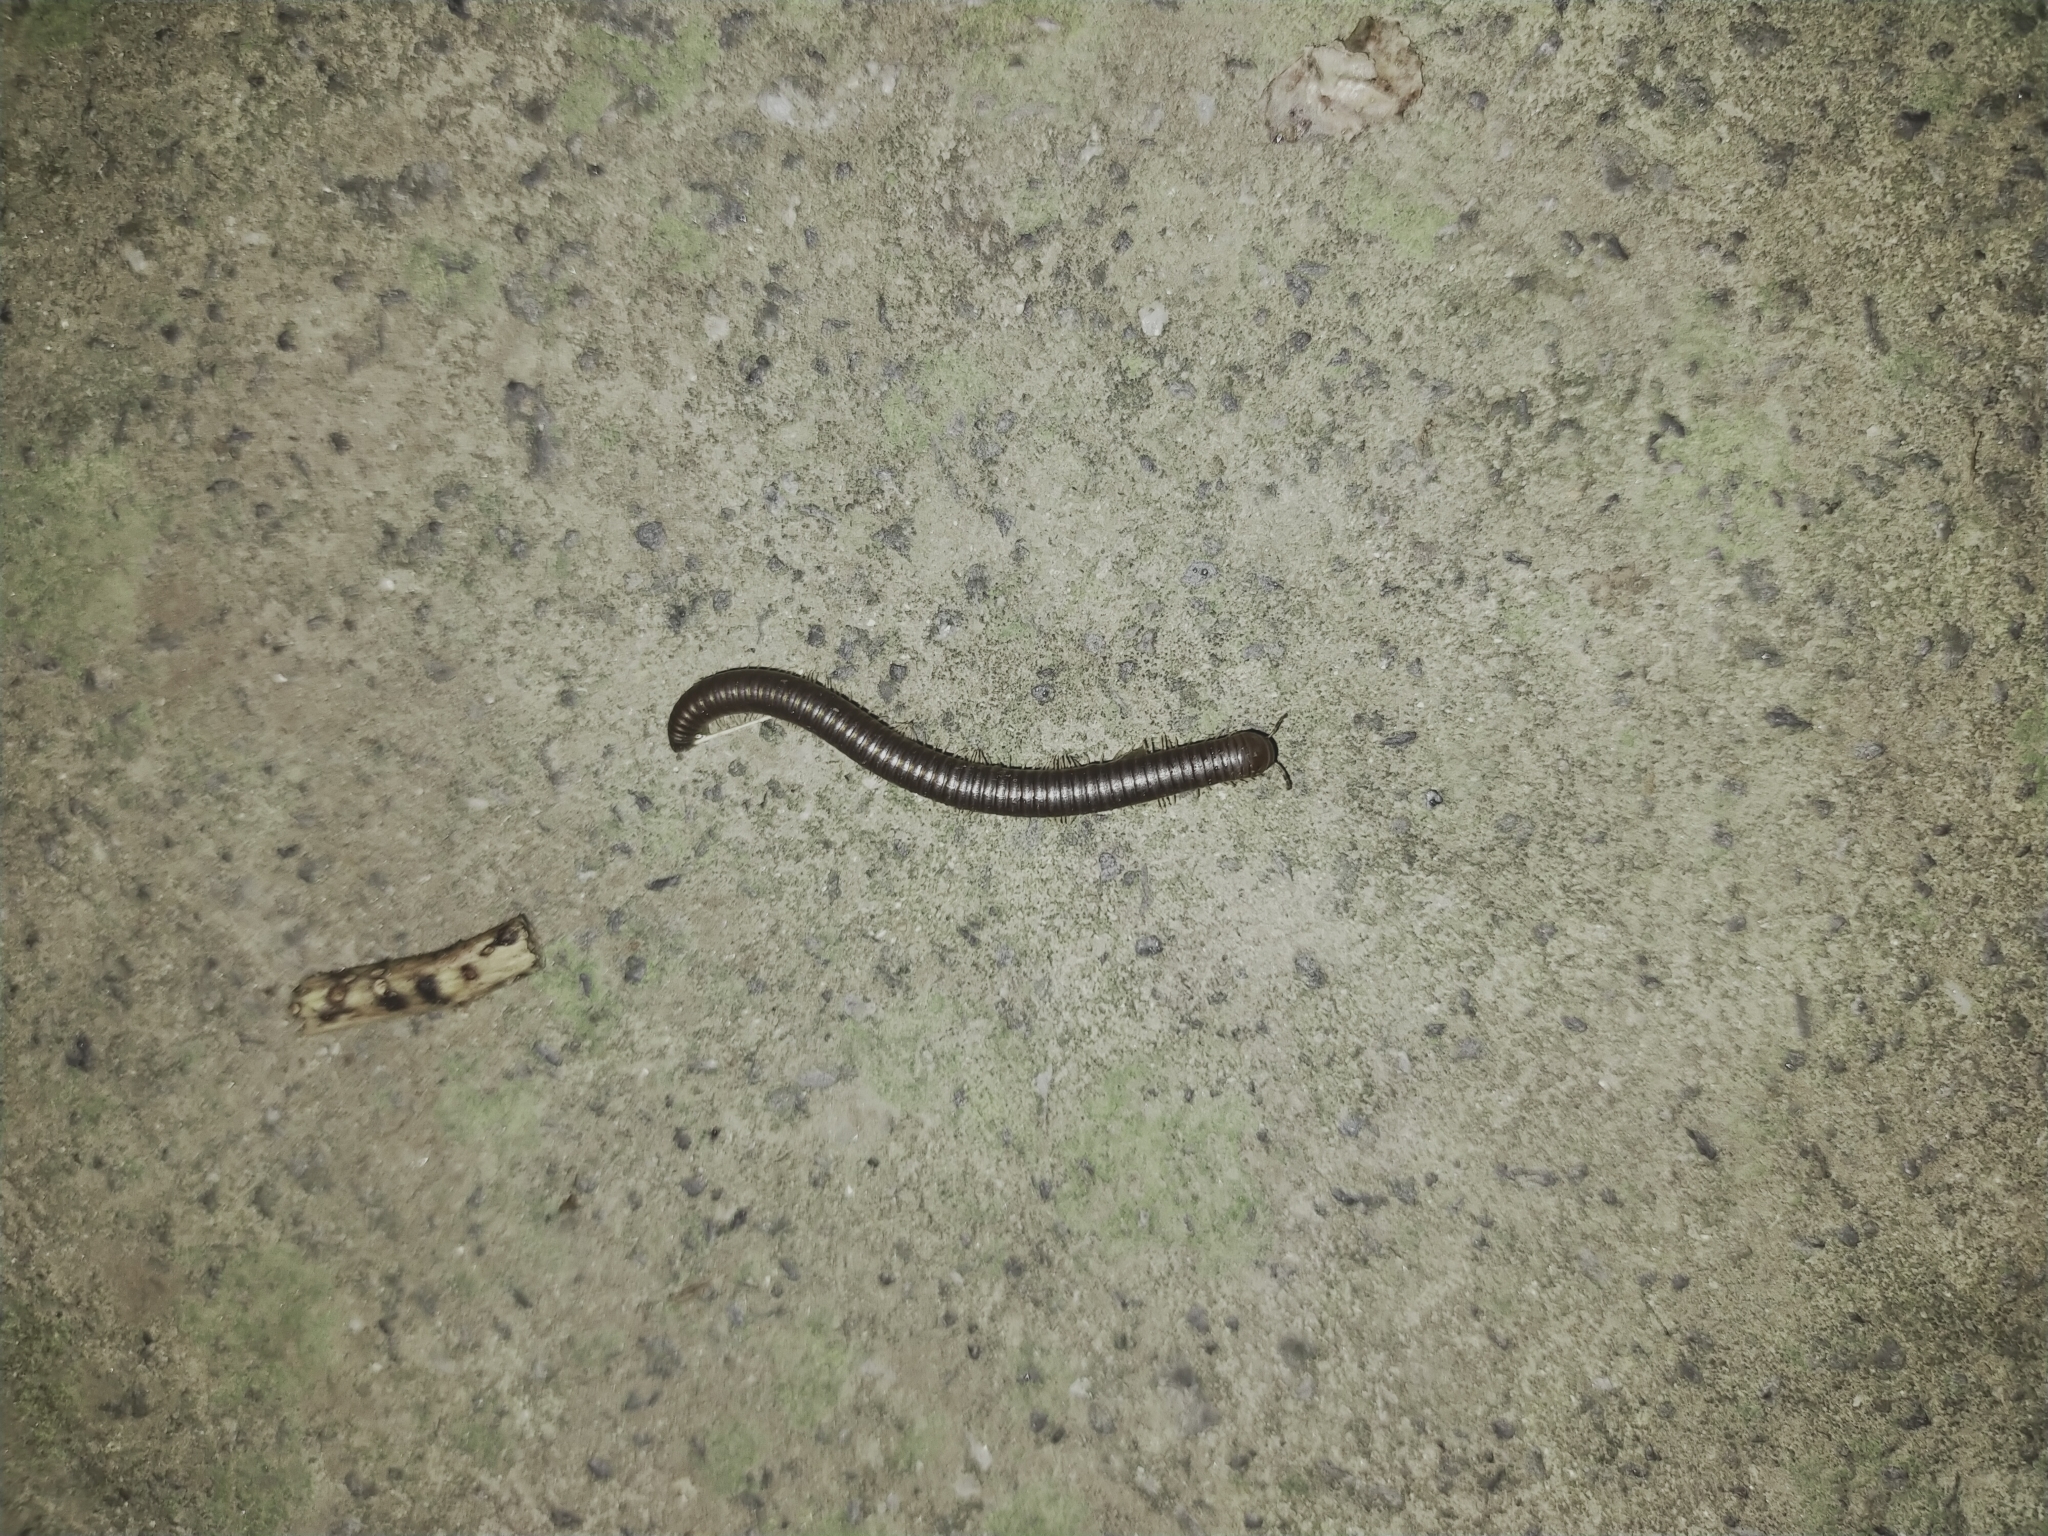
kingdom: Animalia
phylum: Arthropoda
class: Diplopoda
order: Julida
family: Julidae
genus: Pachyiulus
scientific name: Pachyiulus flavipes
